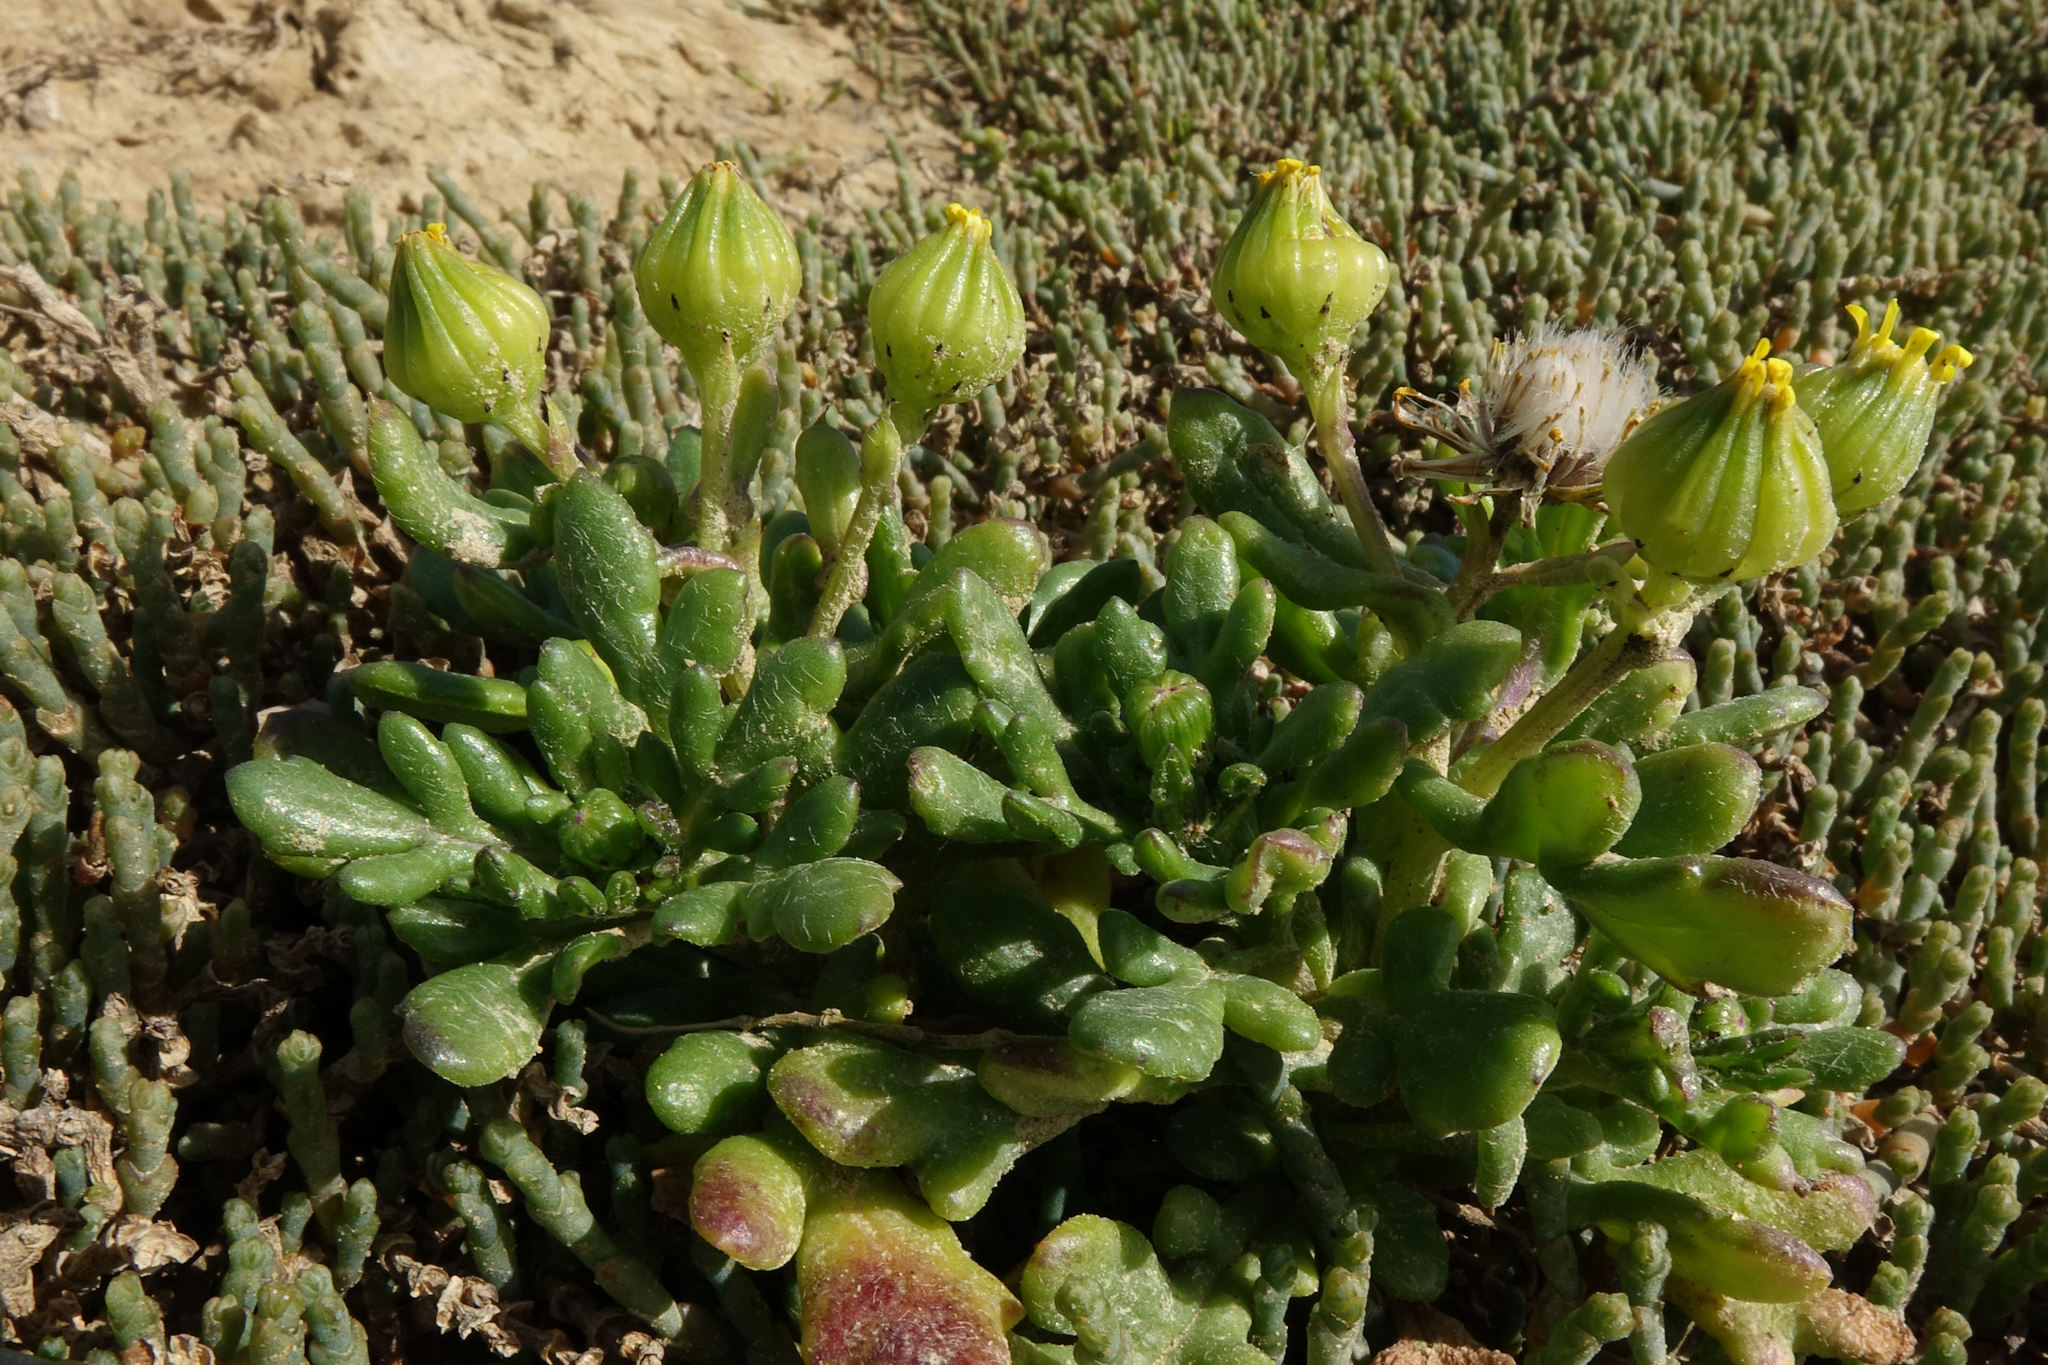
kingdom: Plantae
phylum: Tracheophyta
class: Magnoliopsida
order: Asterales
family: Asteraceae
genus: Senecio
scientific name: Senecio carnosulus
